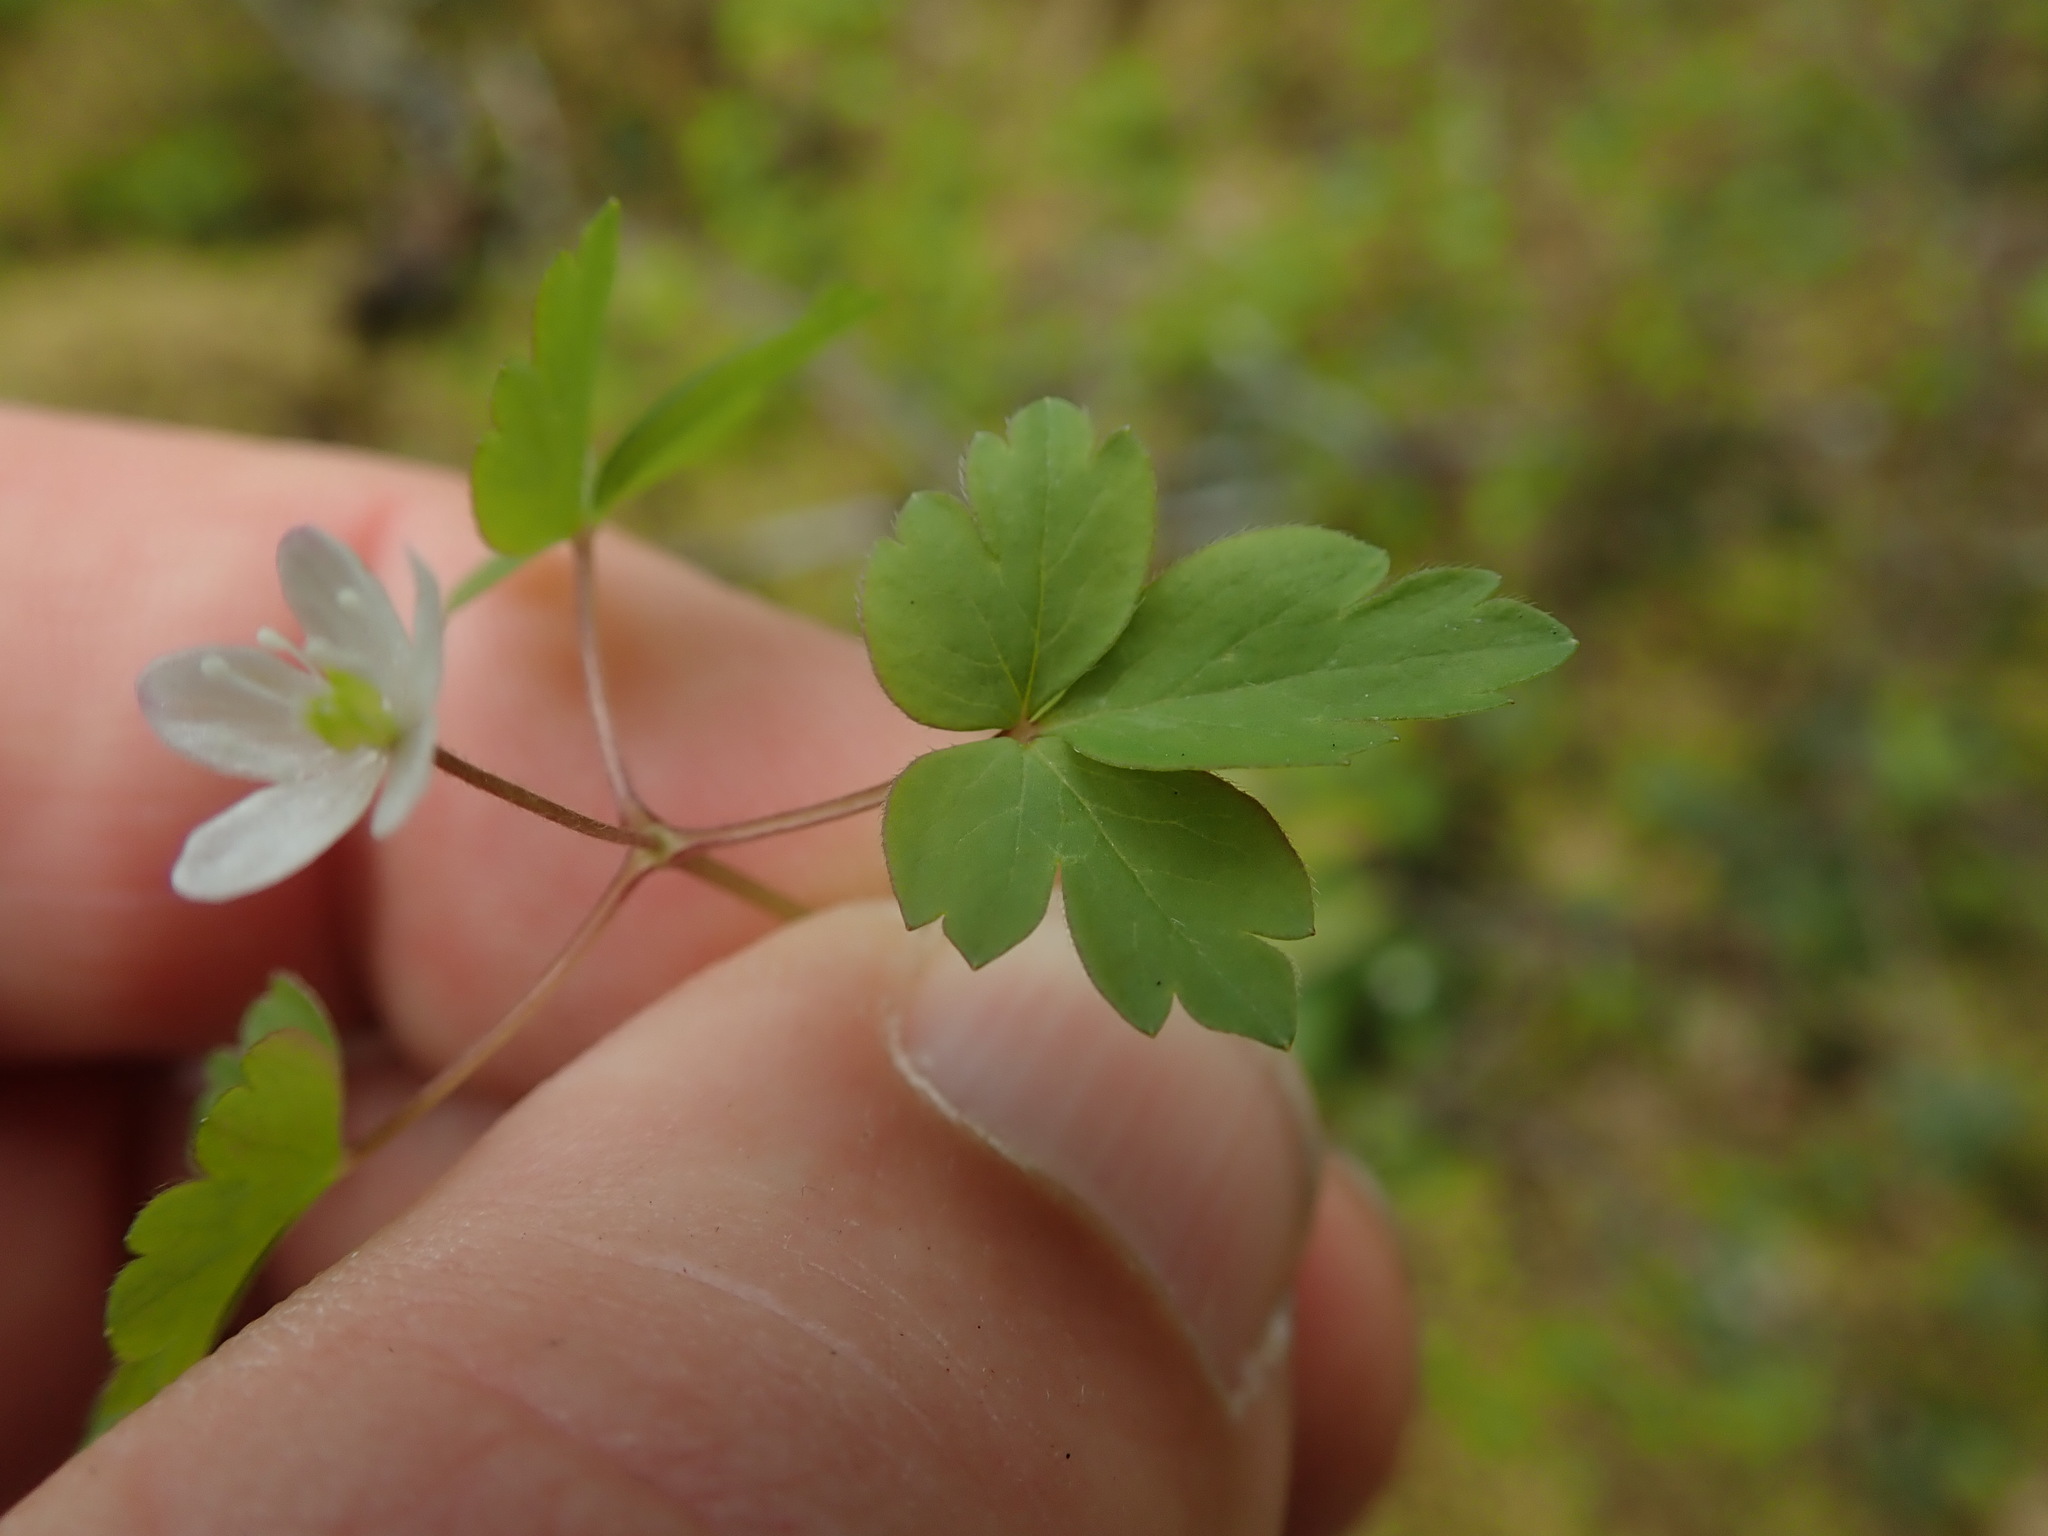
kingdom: Plantae
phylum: Tracheophyta
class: Magnoliopsida
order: Ranunculales
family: Ranunculaceae
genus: Anemone
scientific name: Anemone
